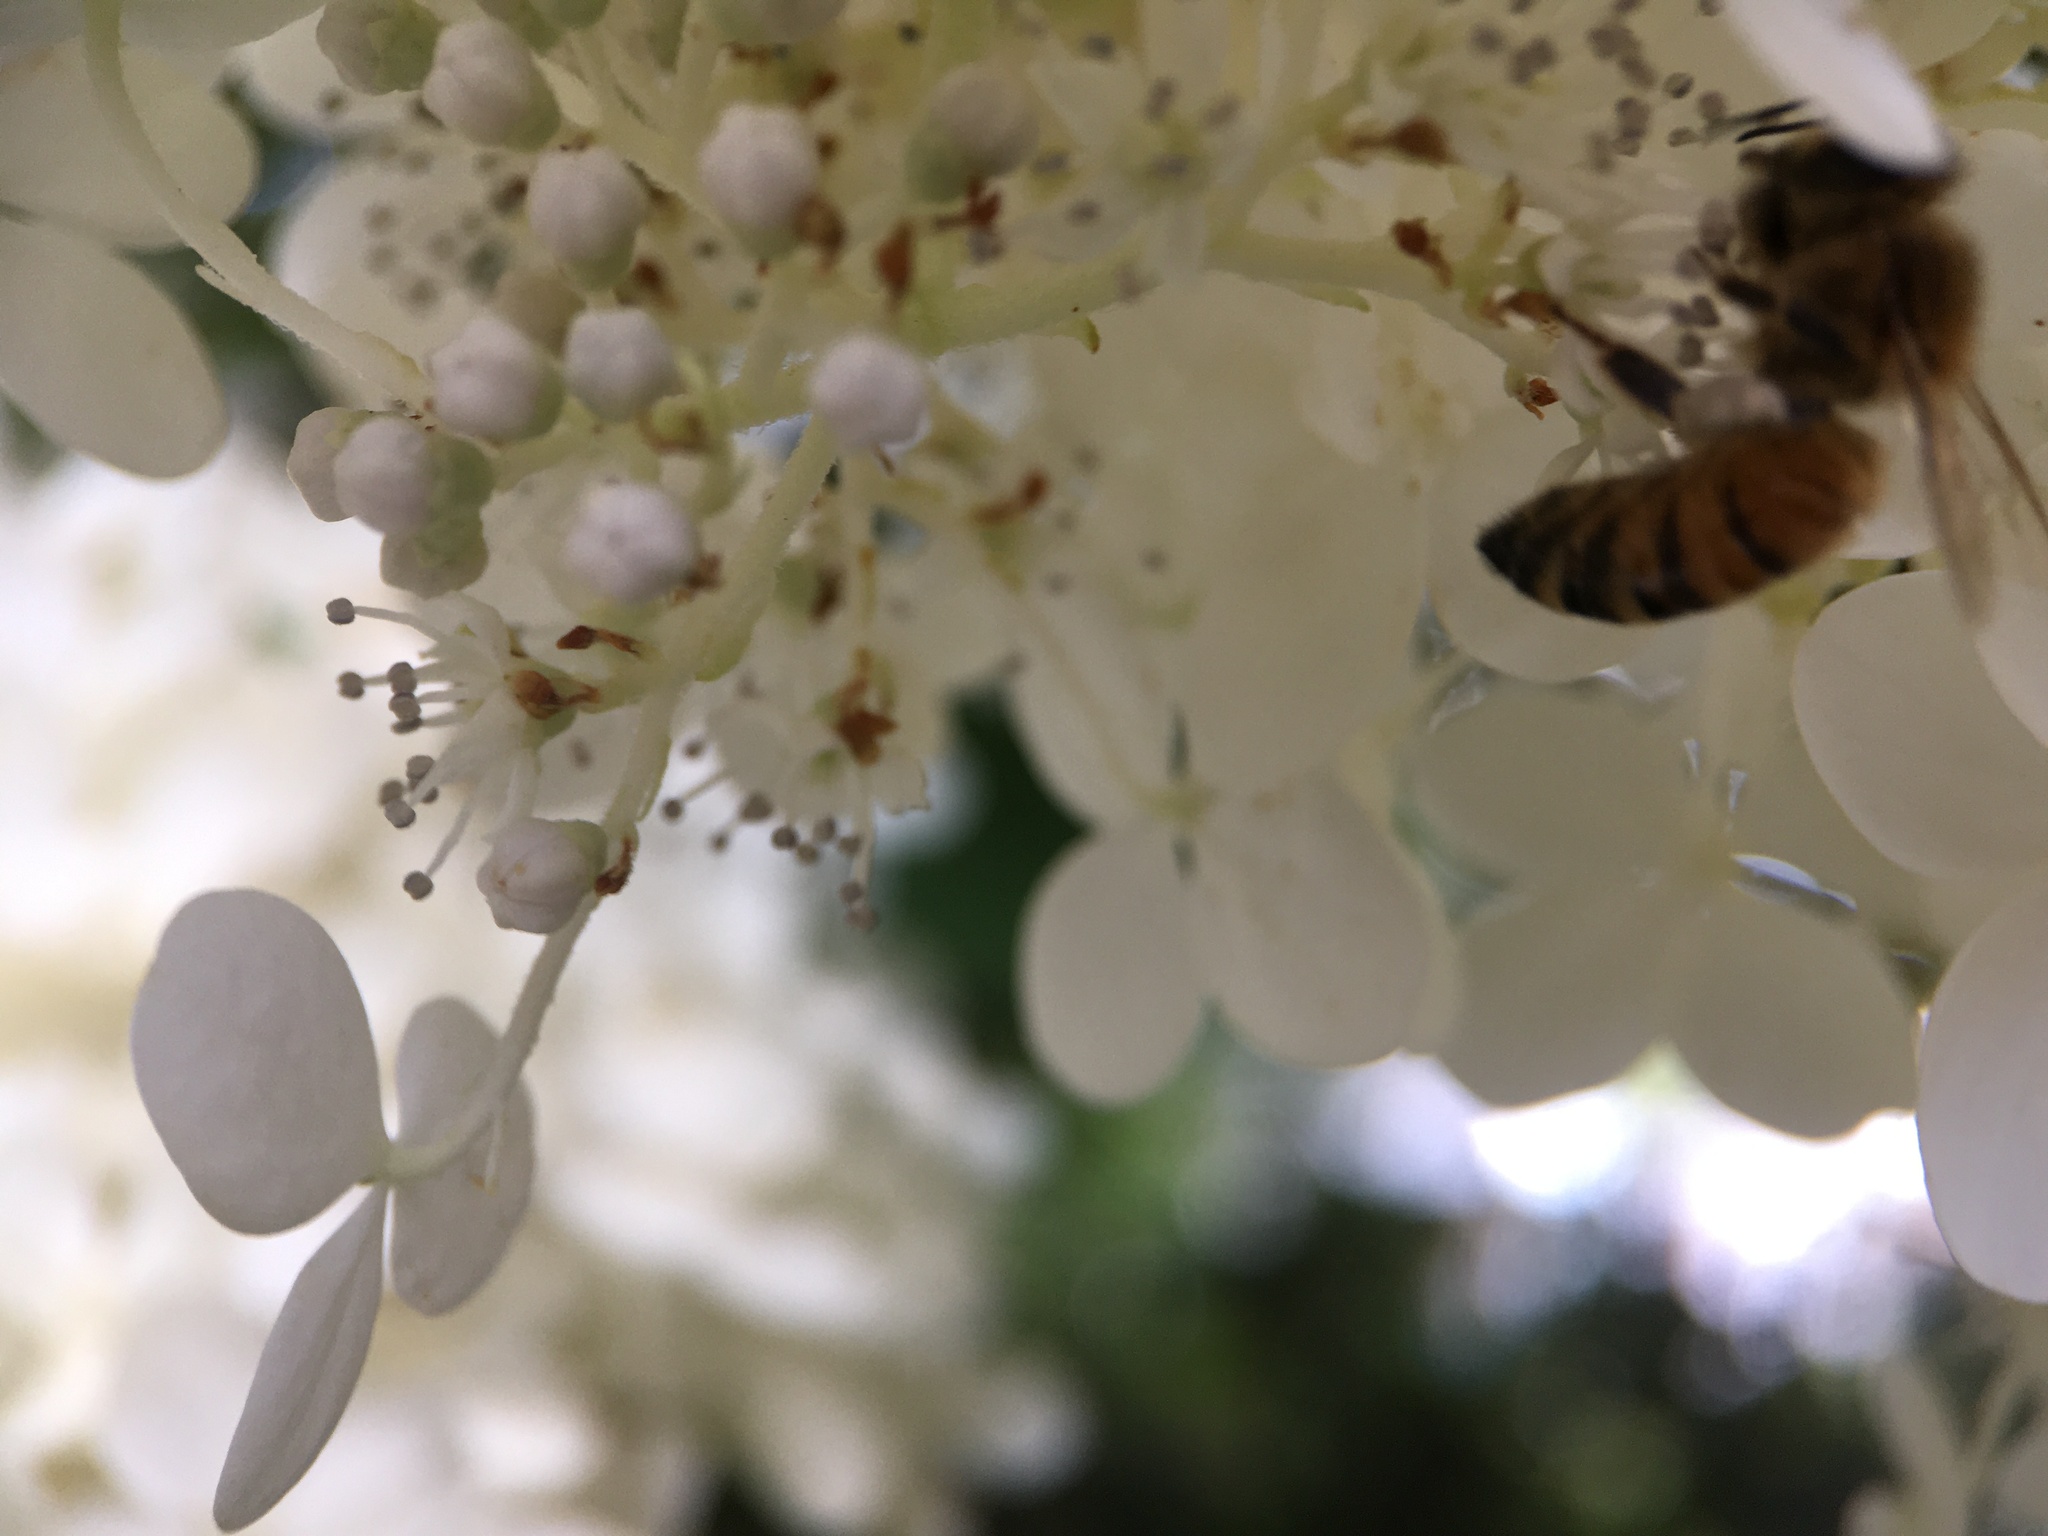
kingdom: Animalia
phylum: Arthropoda
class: Insecta
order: Hymenoptera
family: Apidae
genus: Apis
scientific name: Apis mellifera
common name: Honey bee
